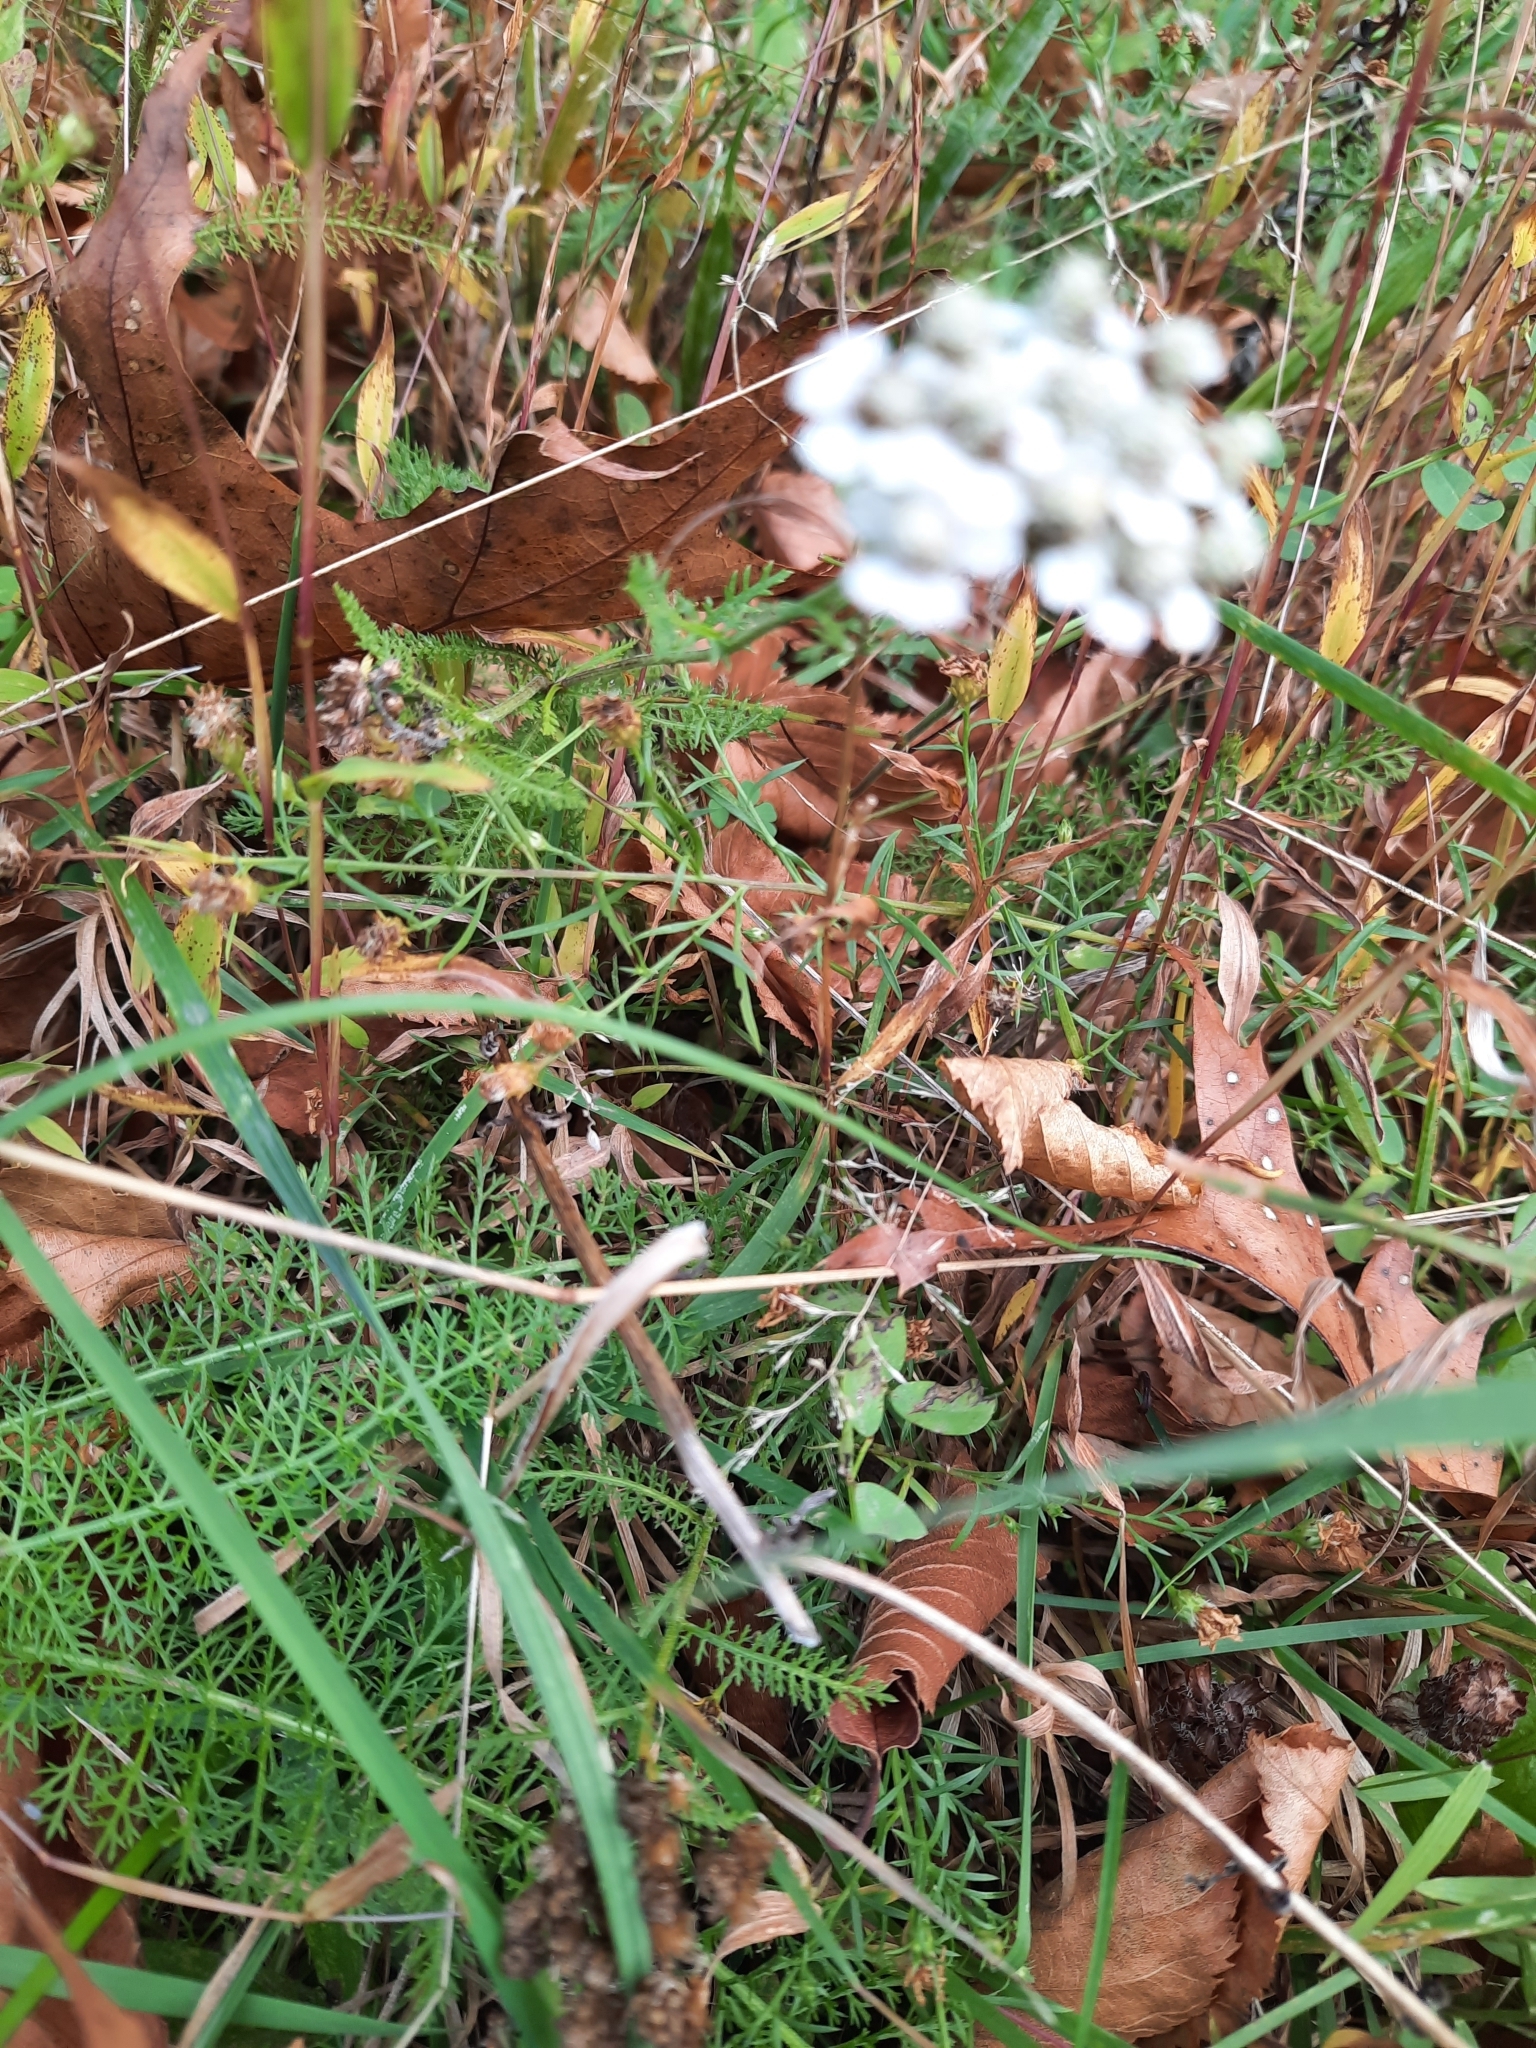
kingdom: Plantae
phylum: Tracheophyta
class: Magnoliopsida
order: Asterales
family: Asteraceae
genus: Achillea
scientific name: Achillea millefolium
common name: Yarrow
